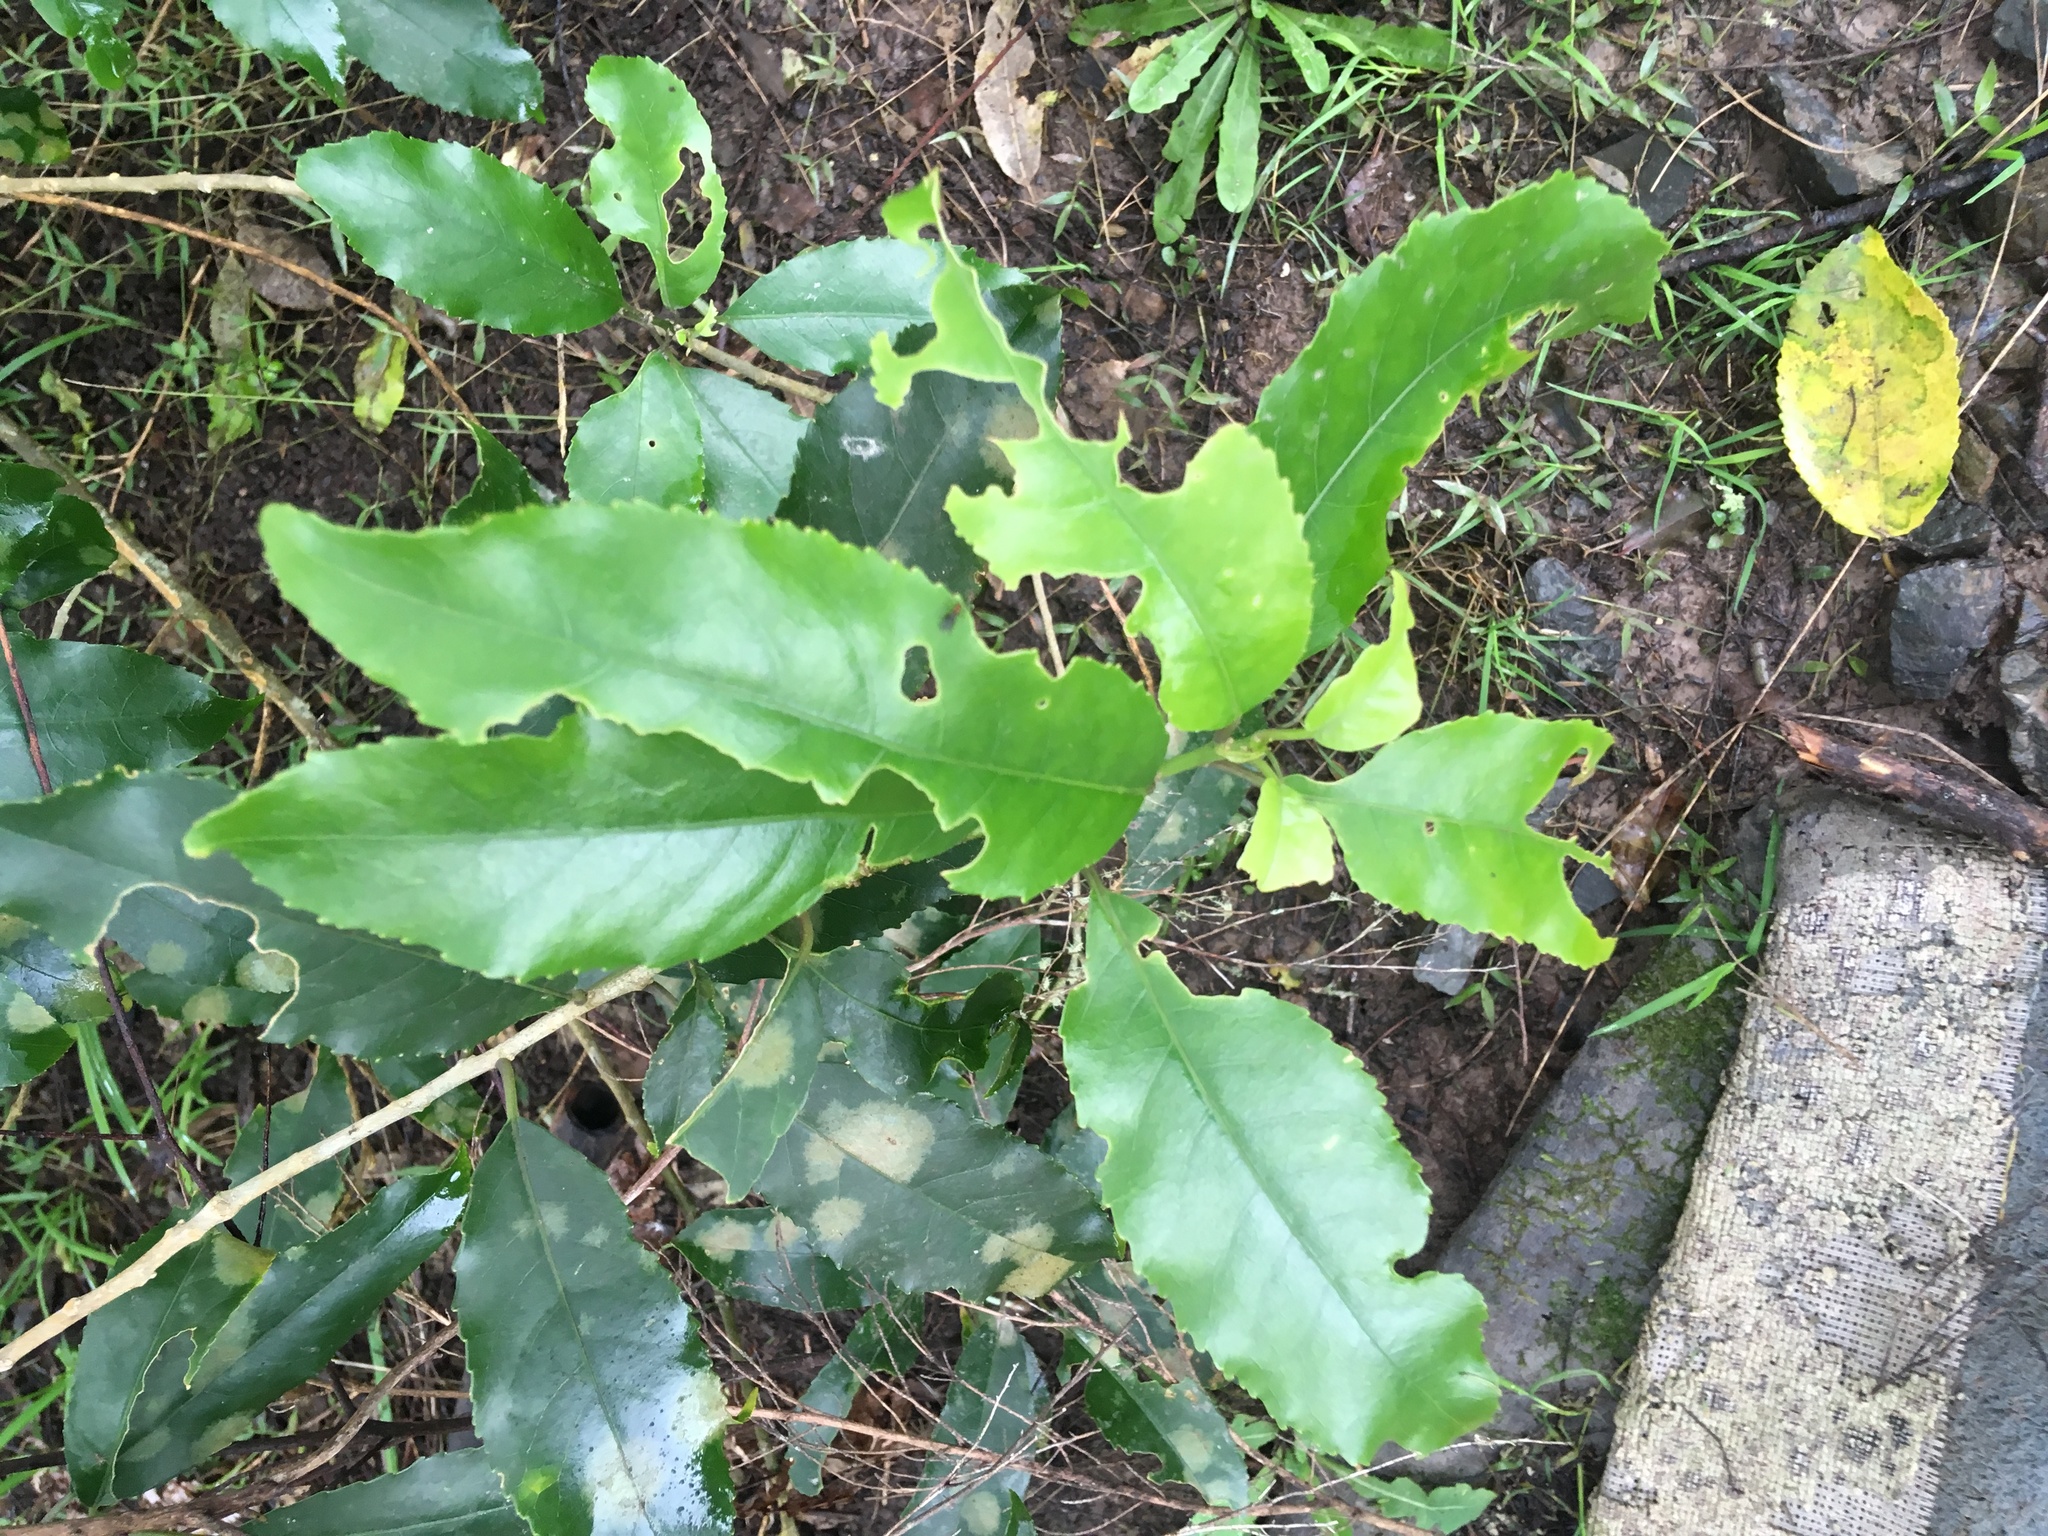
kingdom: Plantae
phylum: Tracheophyta
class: Magnoliopsida
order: Malpighiales
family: Violaceae
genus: Melicytus
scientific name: Melicytus ramiflorus
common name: Mahoe
